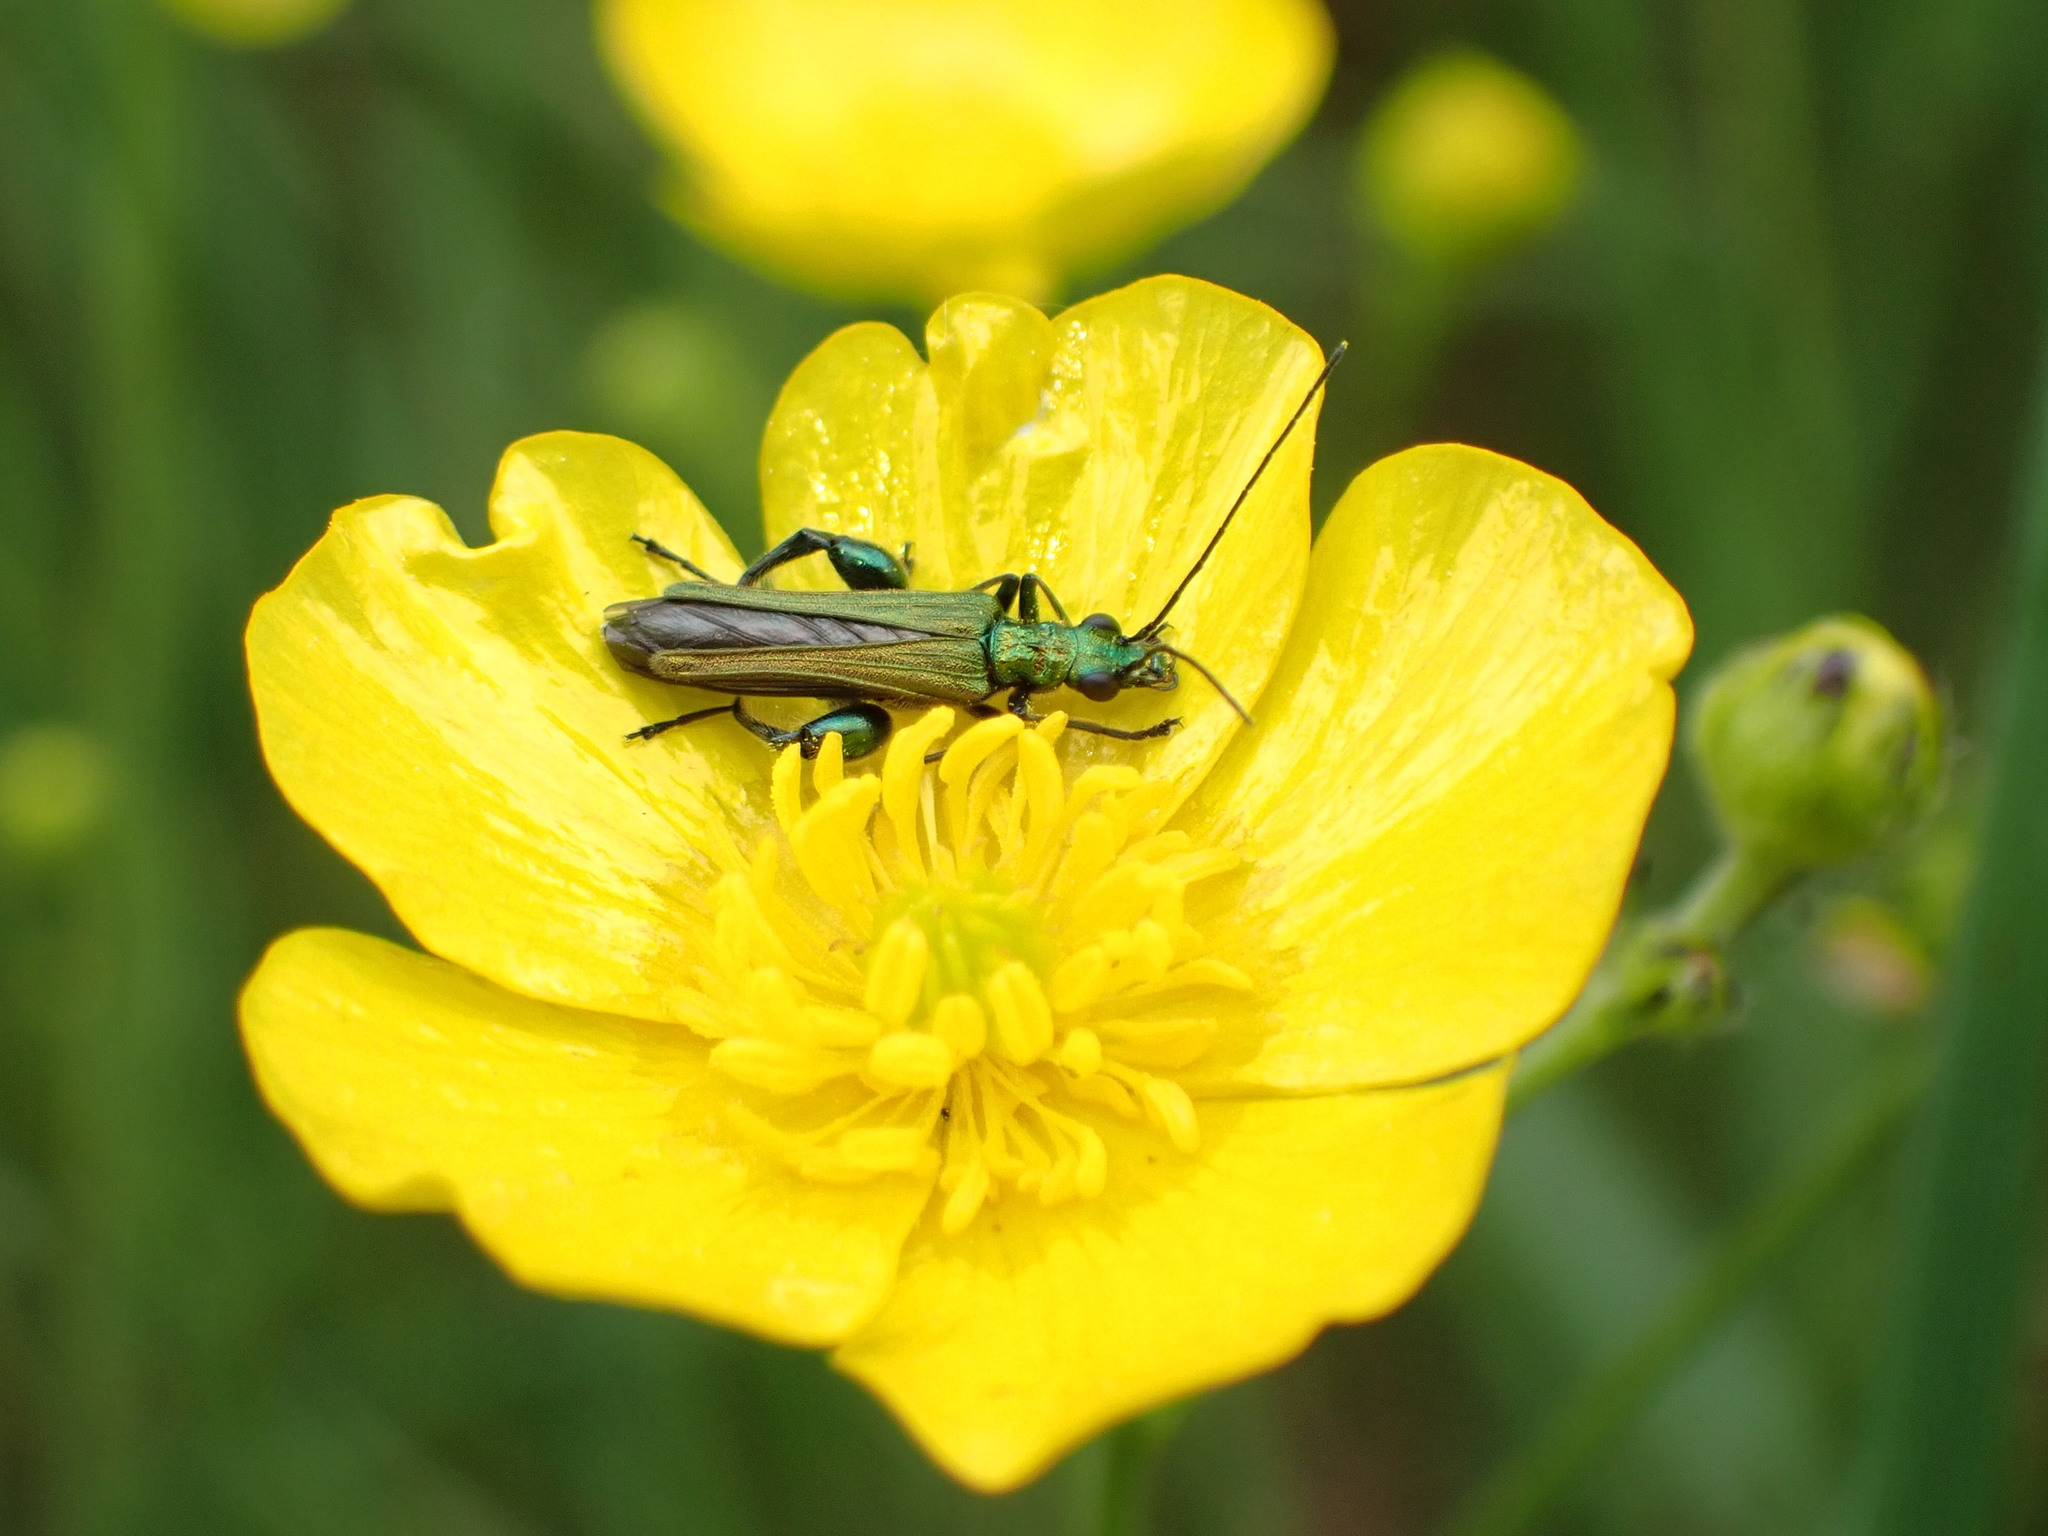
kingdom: Animalia
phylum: Arthropoda
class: Insecta
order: Coleoptera
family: Oedemeridae
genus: Oedemera
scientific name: Oedemera nobilis
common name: Swollen-thighed beetle
